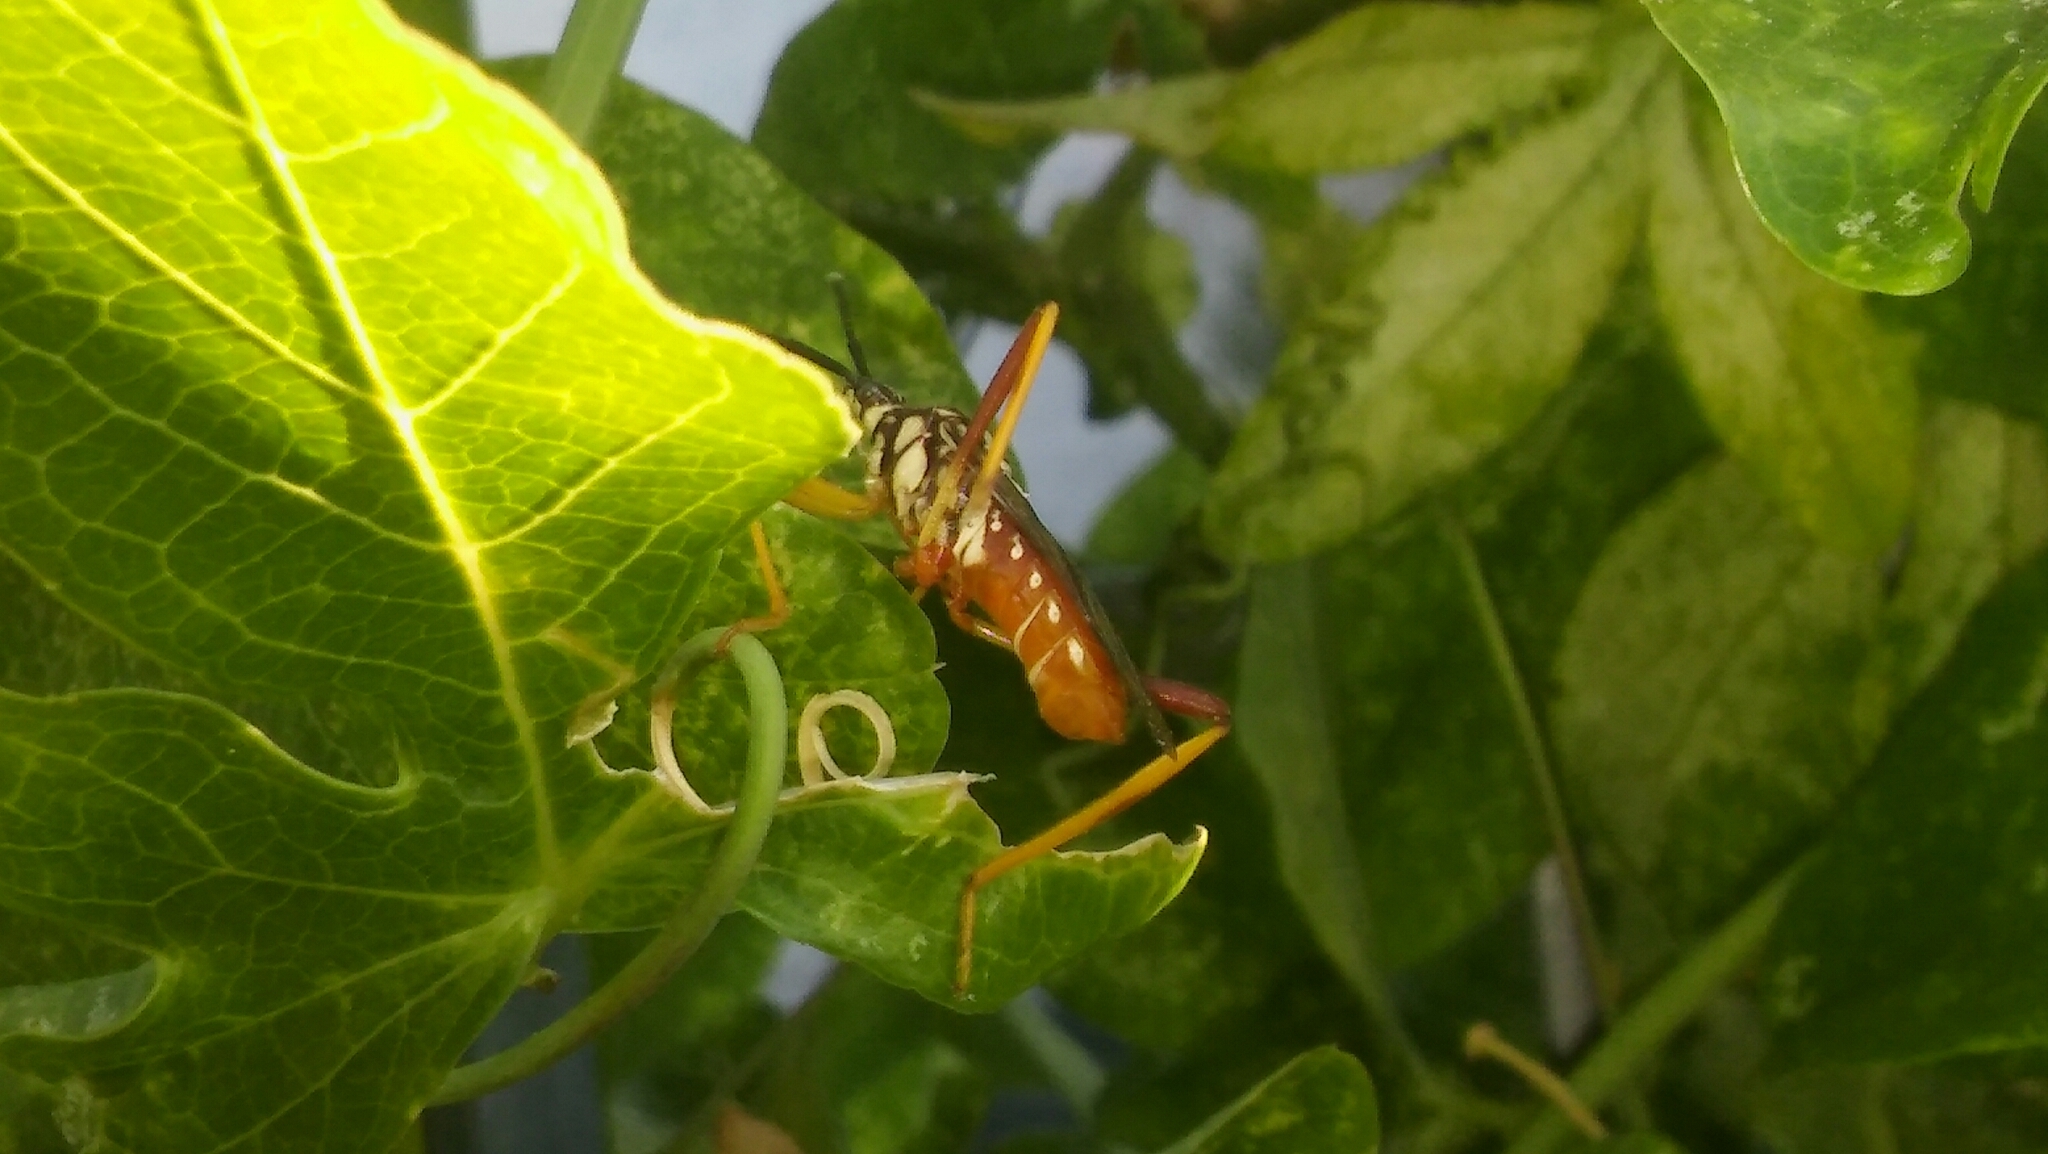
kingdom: Animalia
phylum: Arthropoda
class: Insecta
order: Hemiptera
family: Coreidae
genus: Holhymenia
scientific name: Holhymenia histrio
